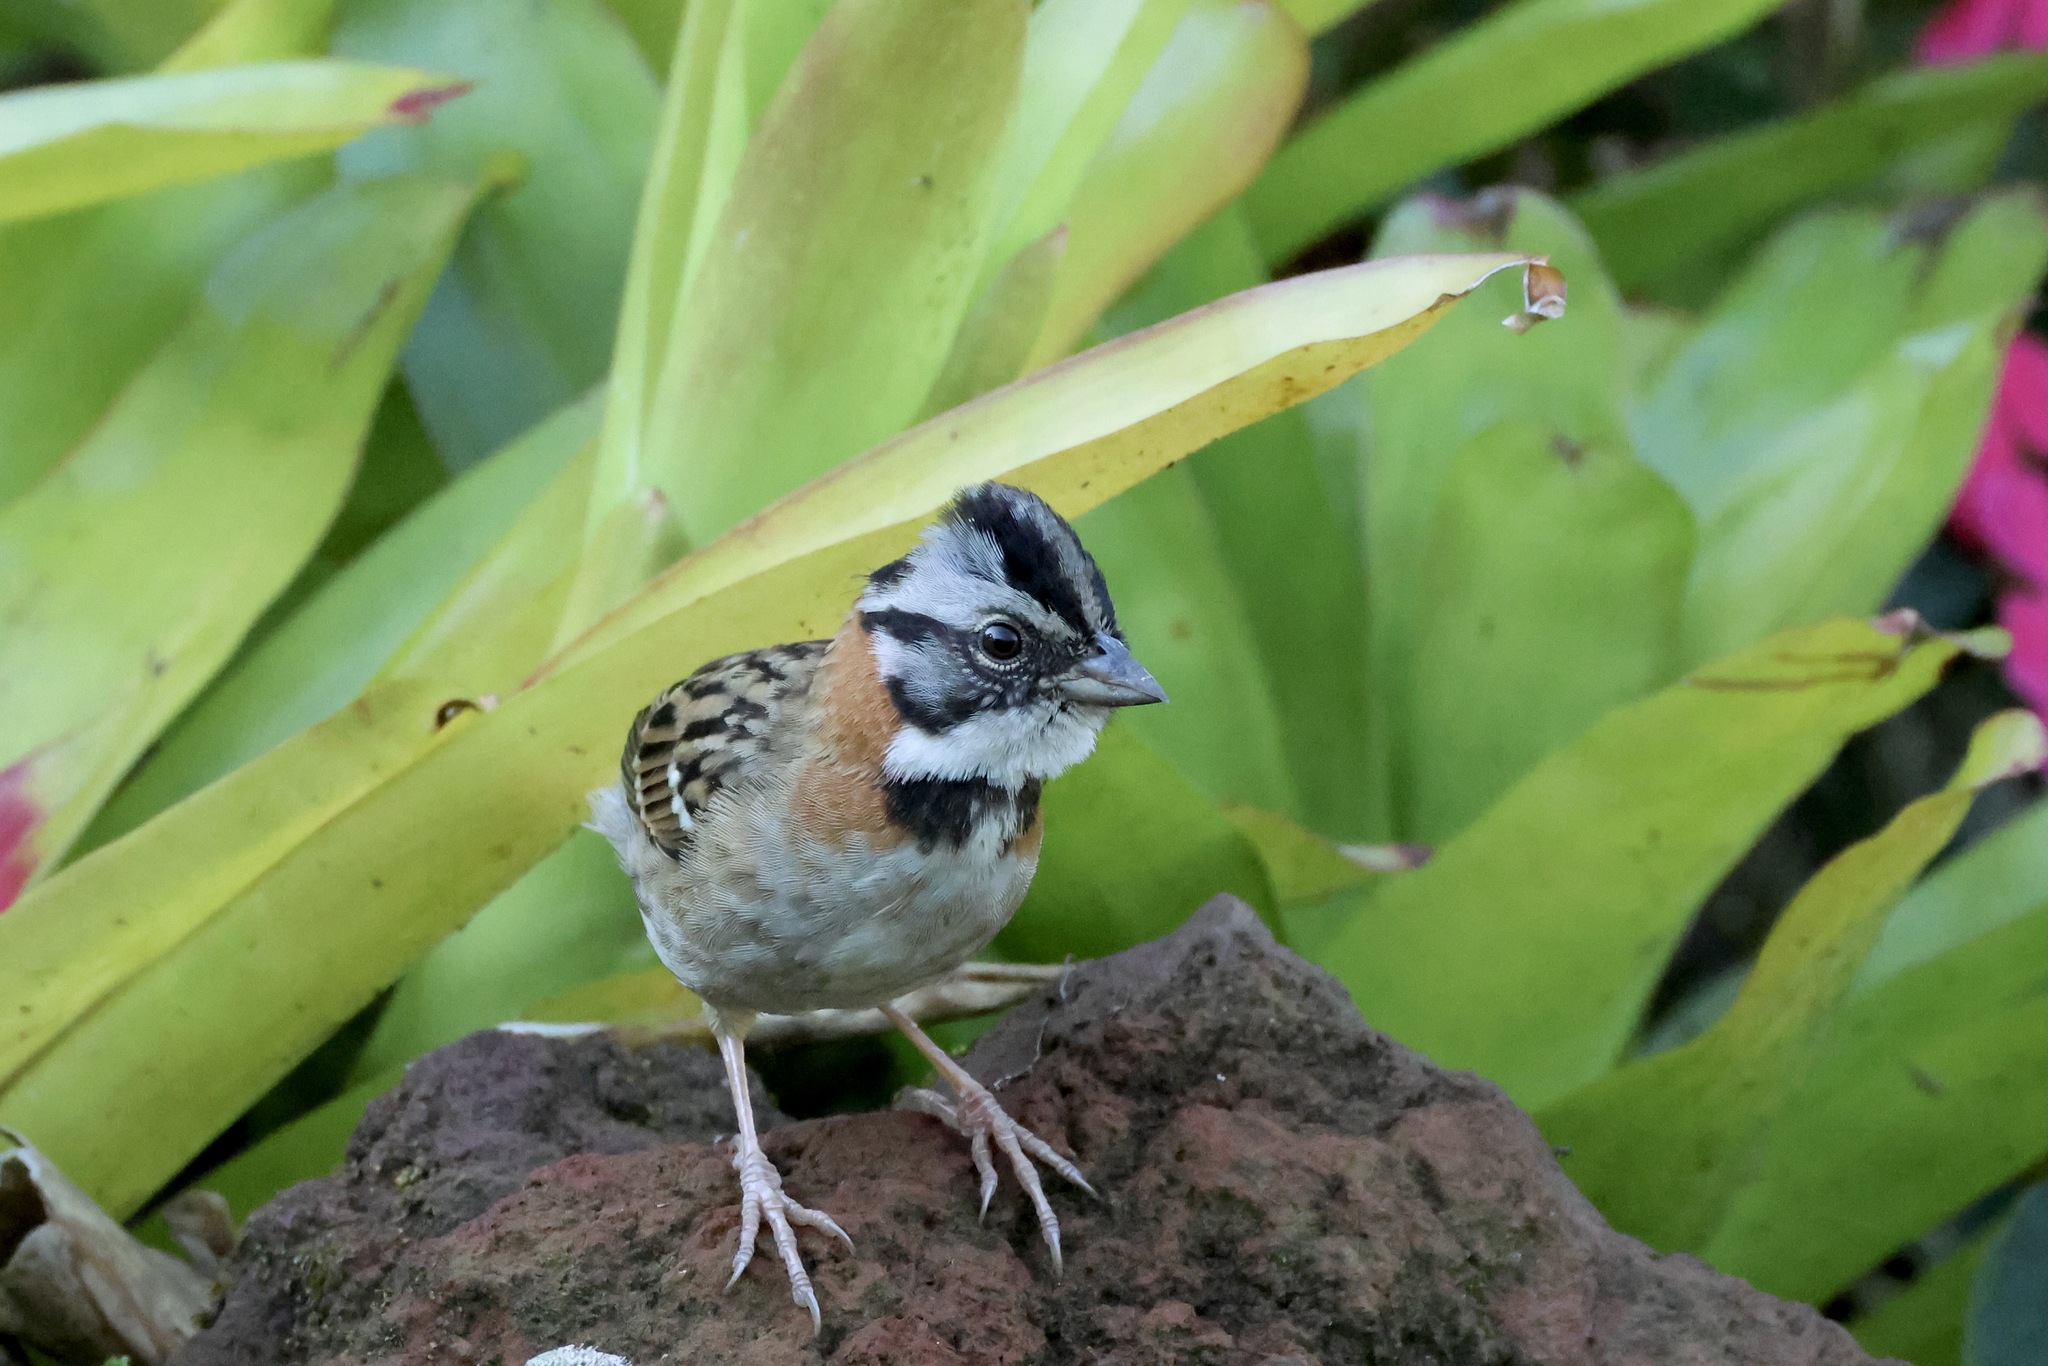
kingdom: Animalia
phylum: Chordata
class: Aves
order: Passeriformes
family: Passerellidae
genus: Zonotrichia
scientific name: Zonotrichia capensis
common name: Rufous-collared sparrow
